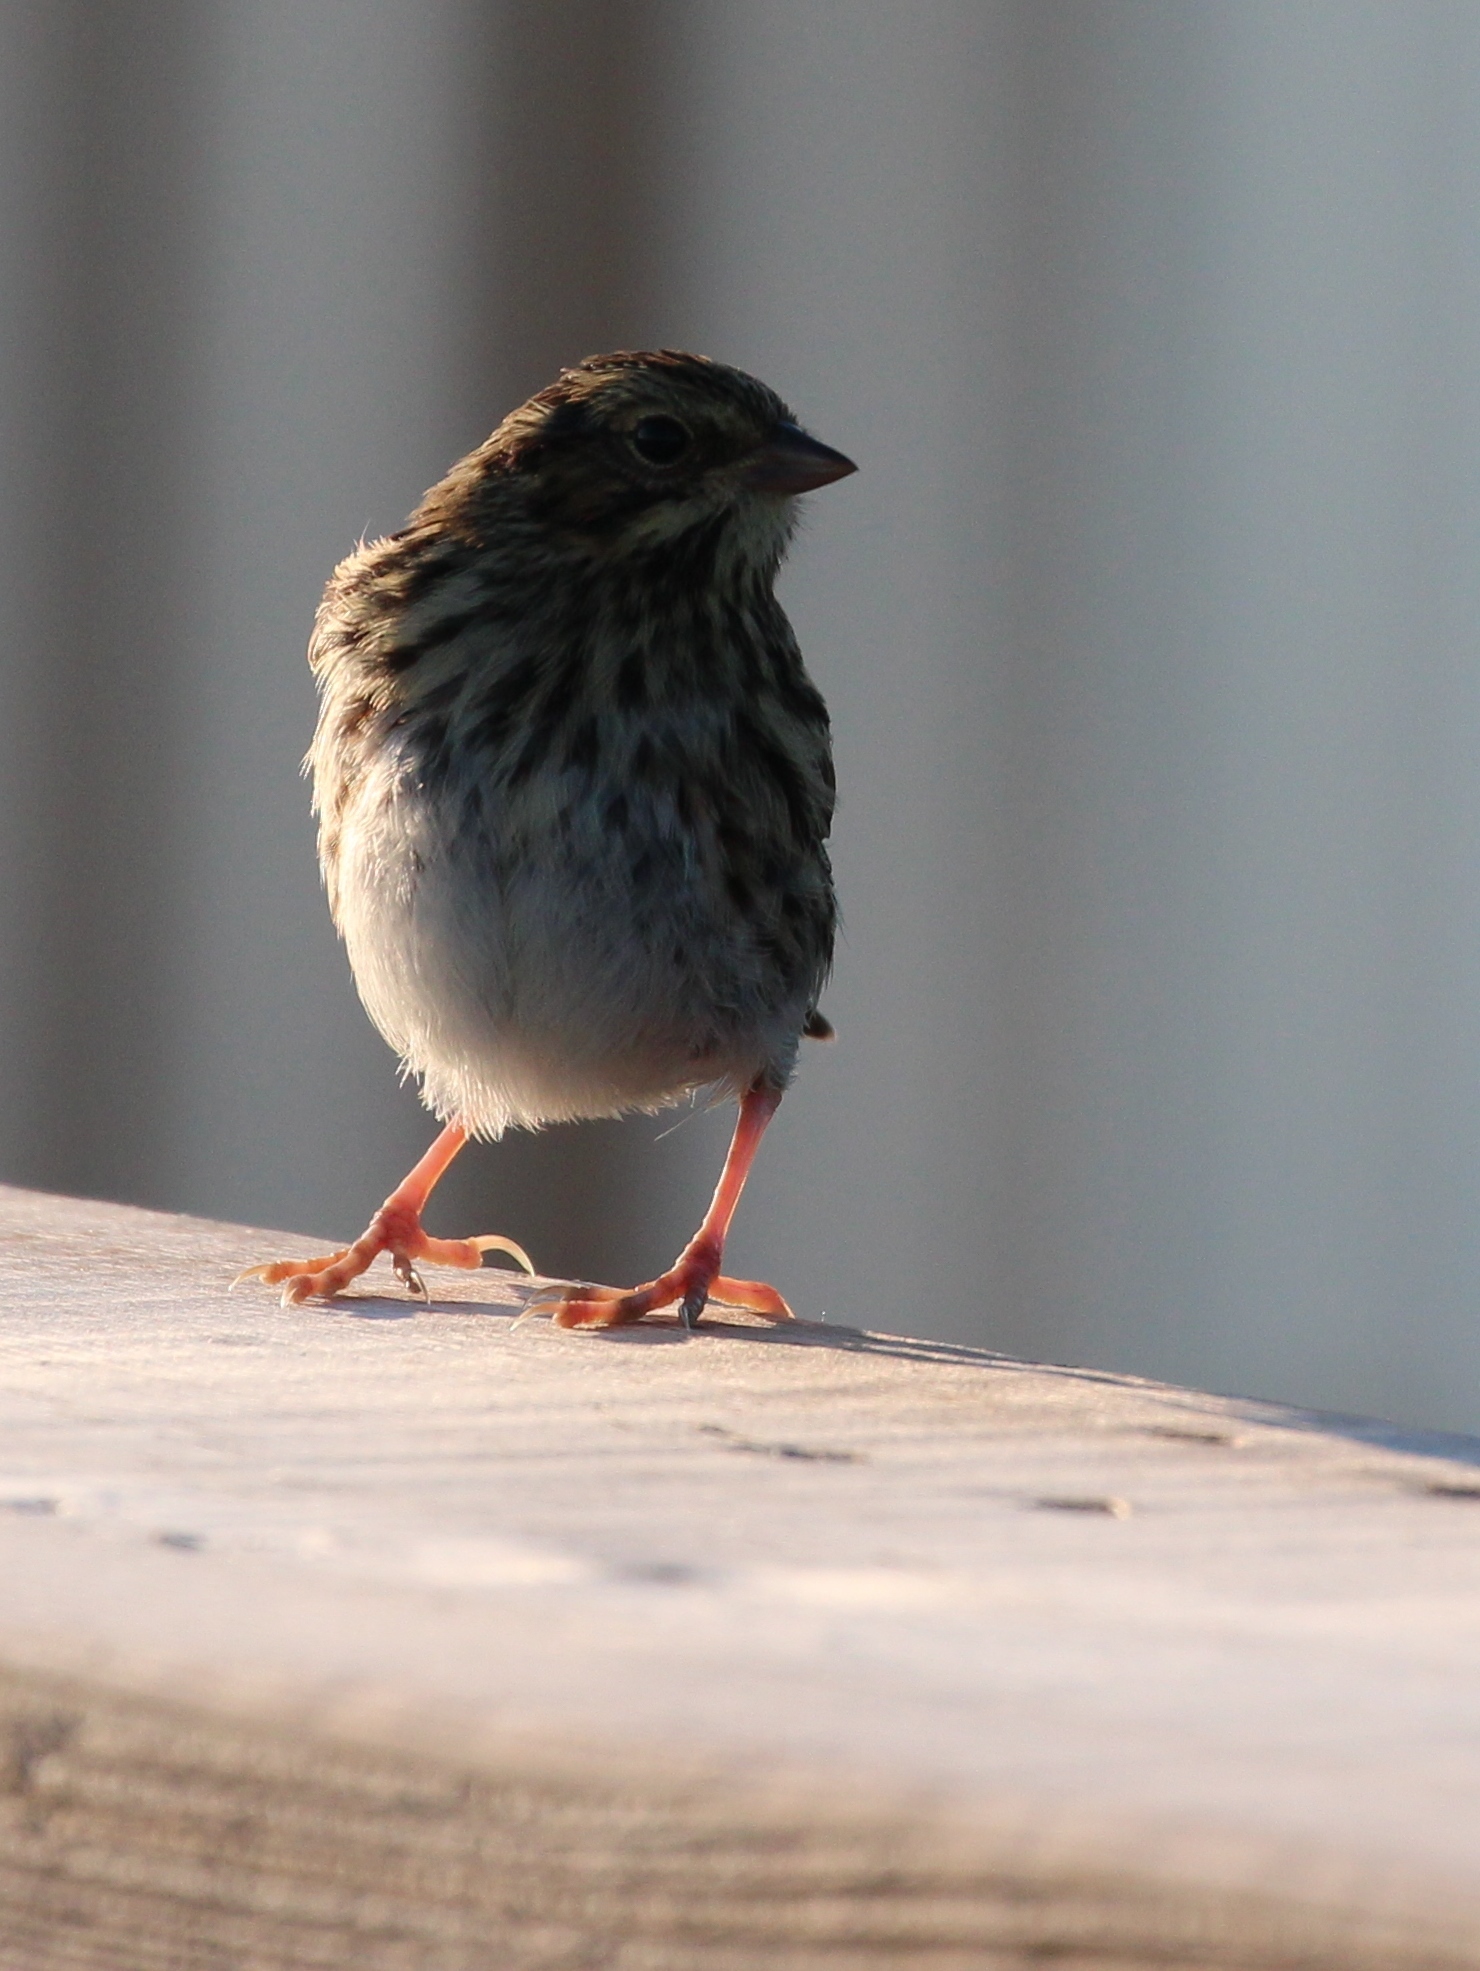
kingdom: Animalia
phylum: Chordata
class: Aves
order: Passeriformes
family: Passerellidae
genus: Passerculus
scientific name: Passerculus sandwichensis
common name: Savannah sparrow
